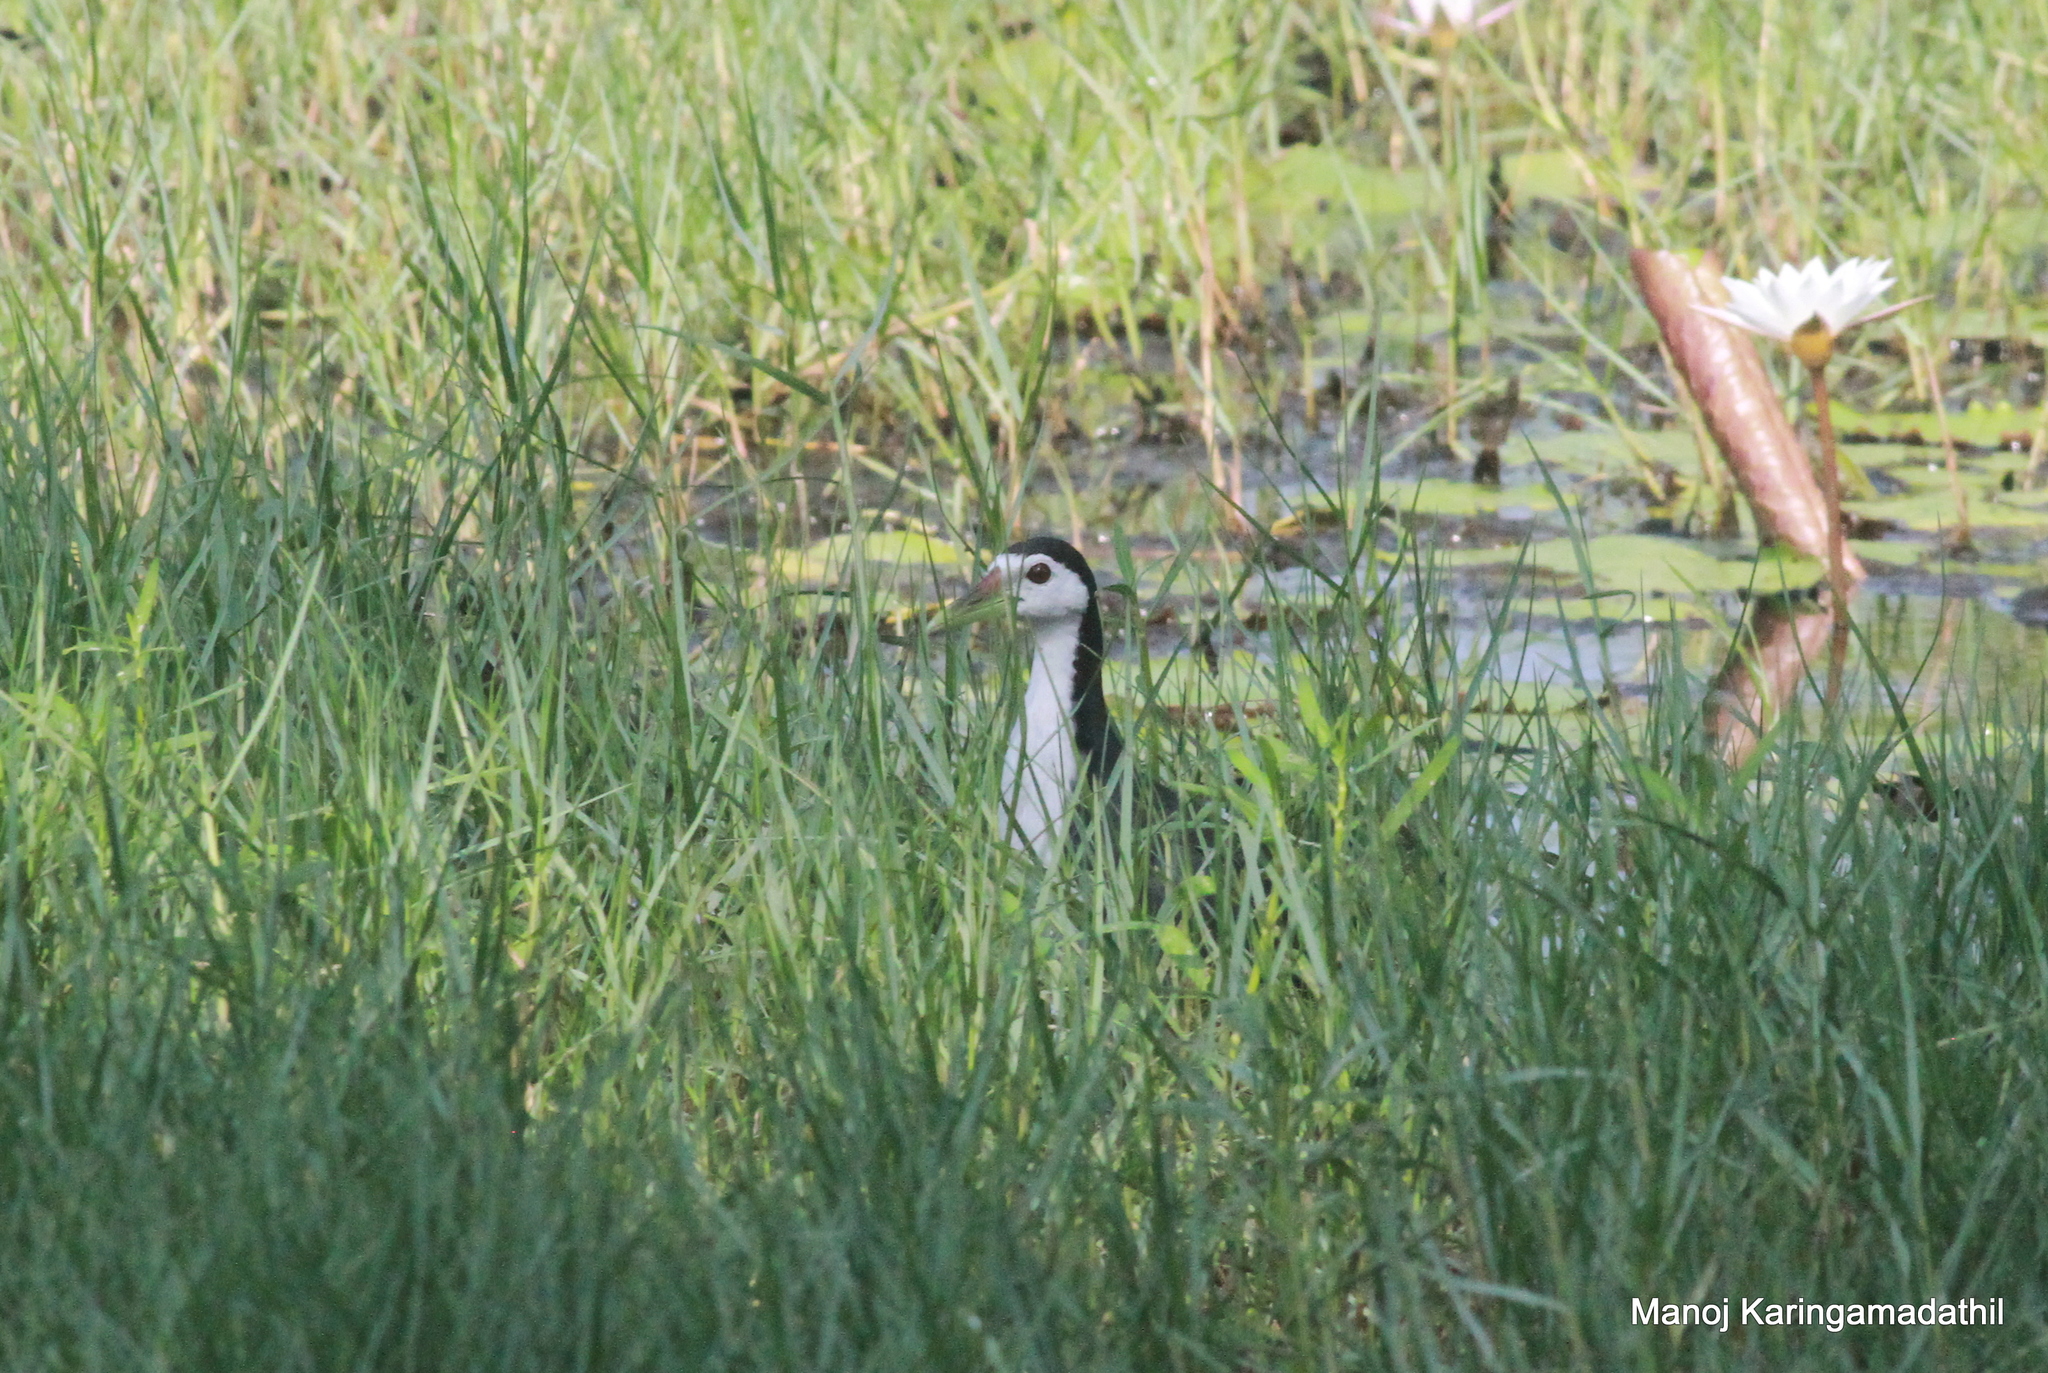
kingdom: Animalia
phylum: Chordata
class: Aves
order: Gruiformes
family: Rallidae
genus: Amaurornis
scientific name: Amaurornis phoenicurus
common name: White-breasted waterhen
